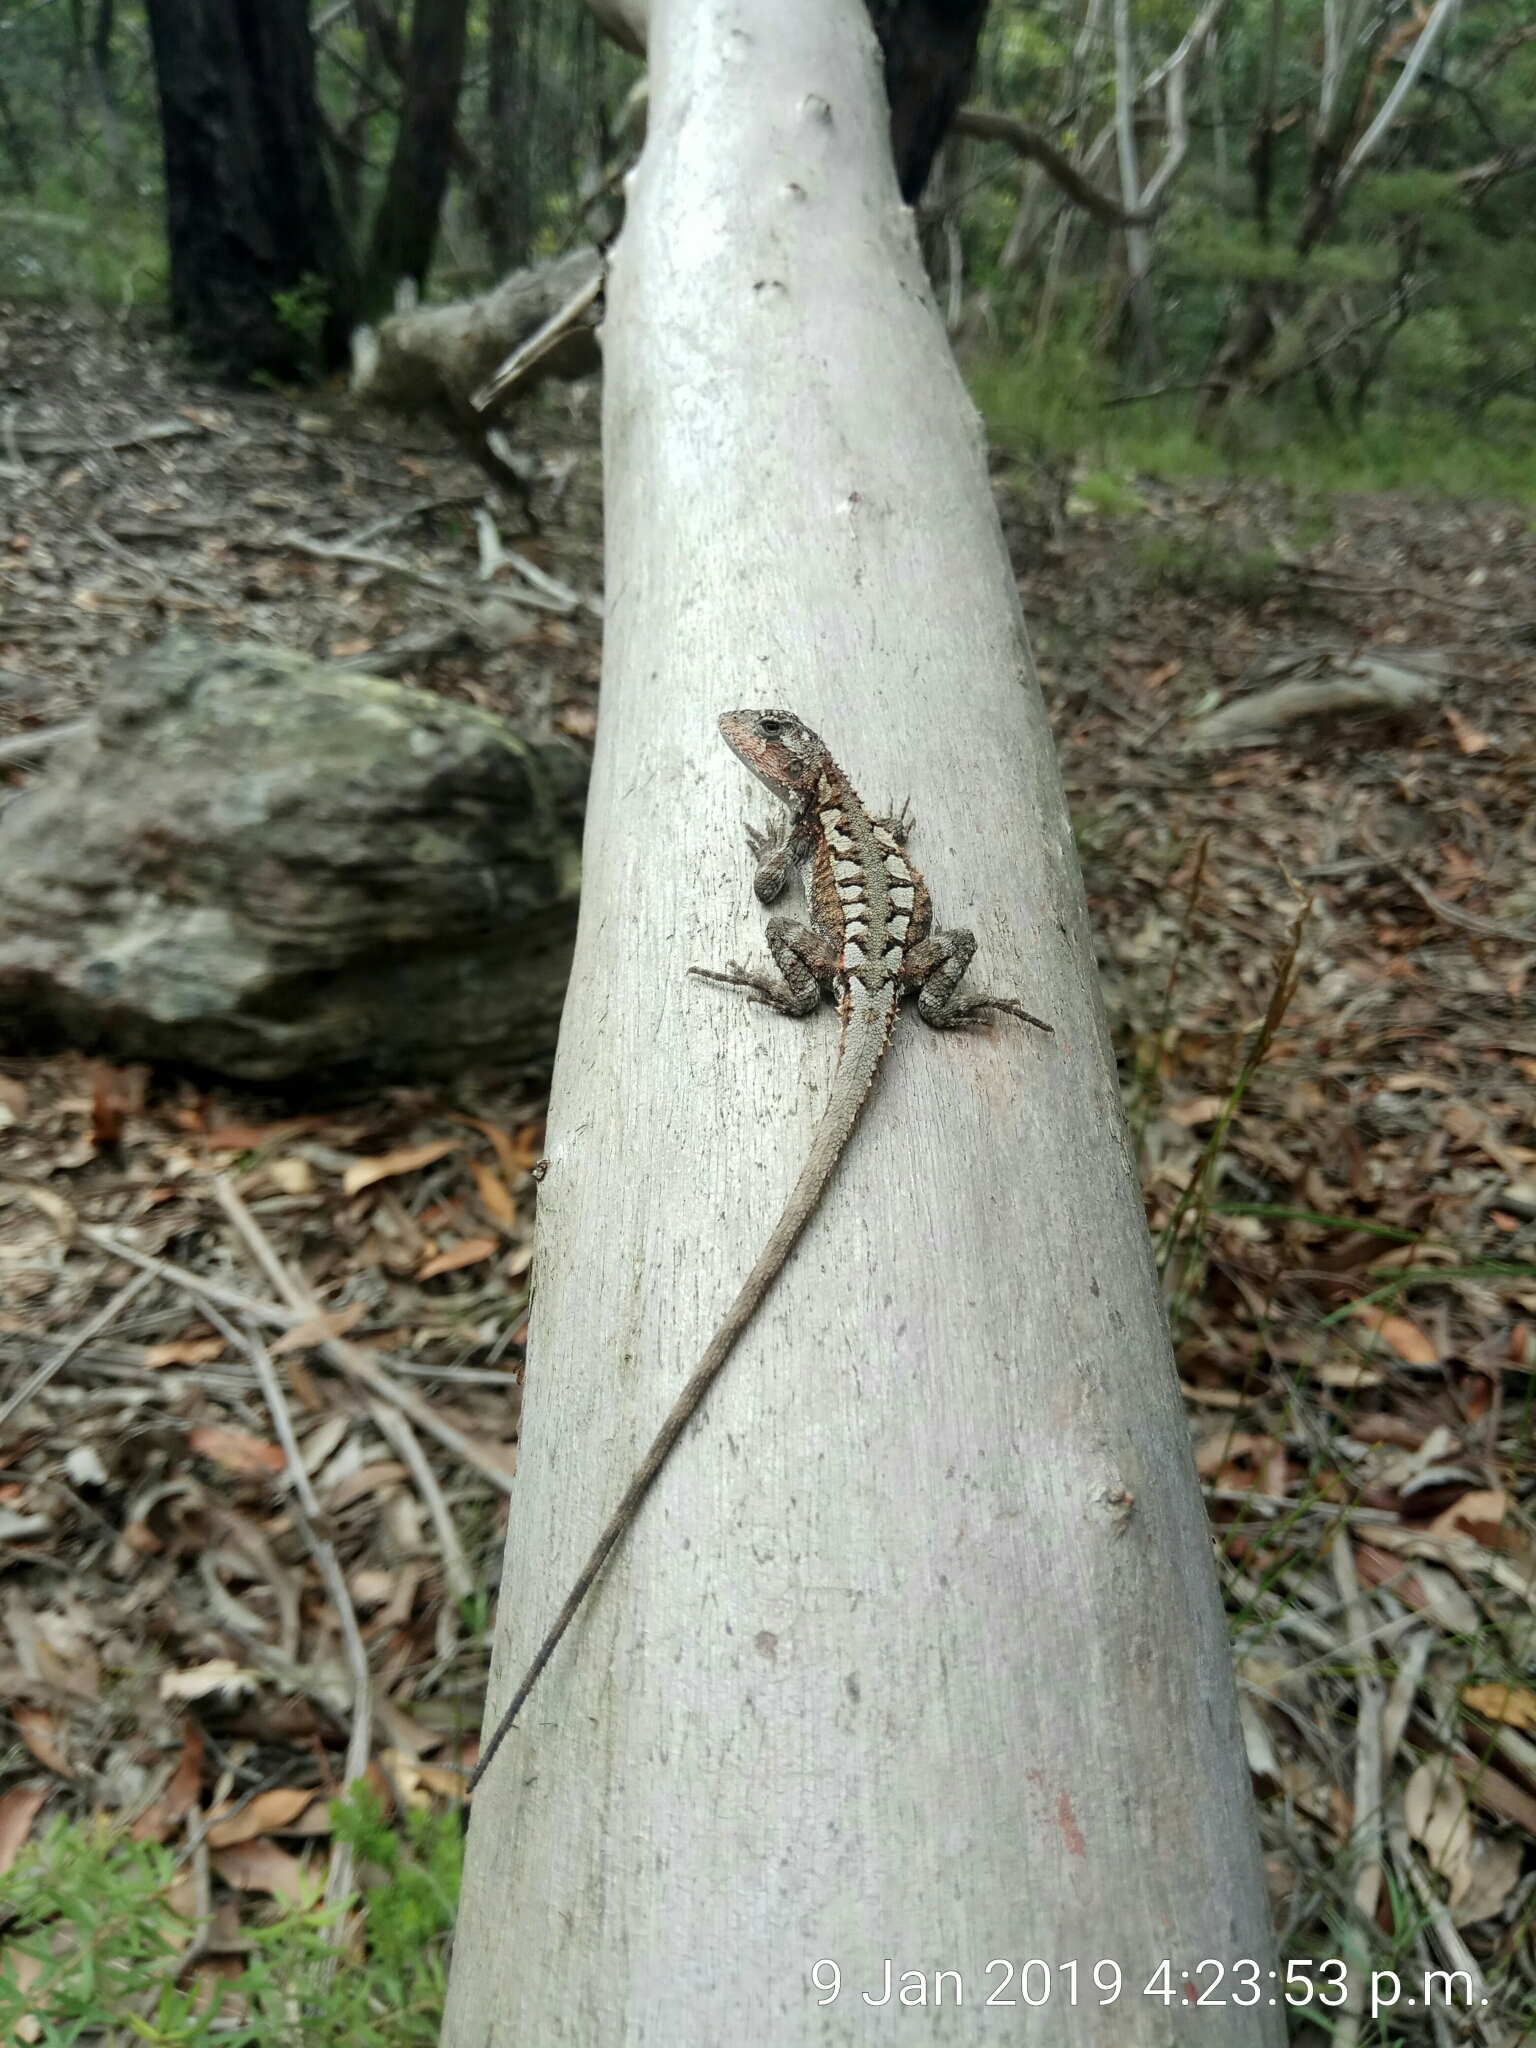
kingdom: Animalia
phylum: Chordata
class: Squamata
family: Agamidae
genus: Rankinia
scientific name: Rankinia diemensis
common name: Mountain dragon
